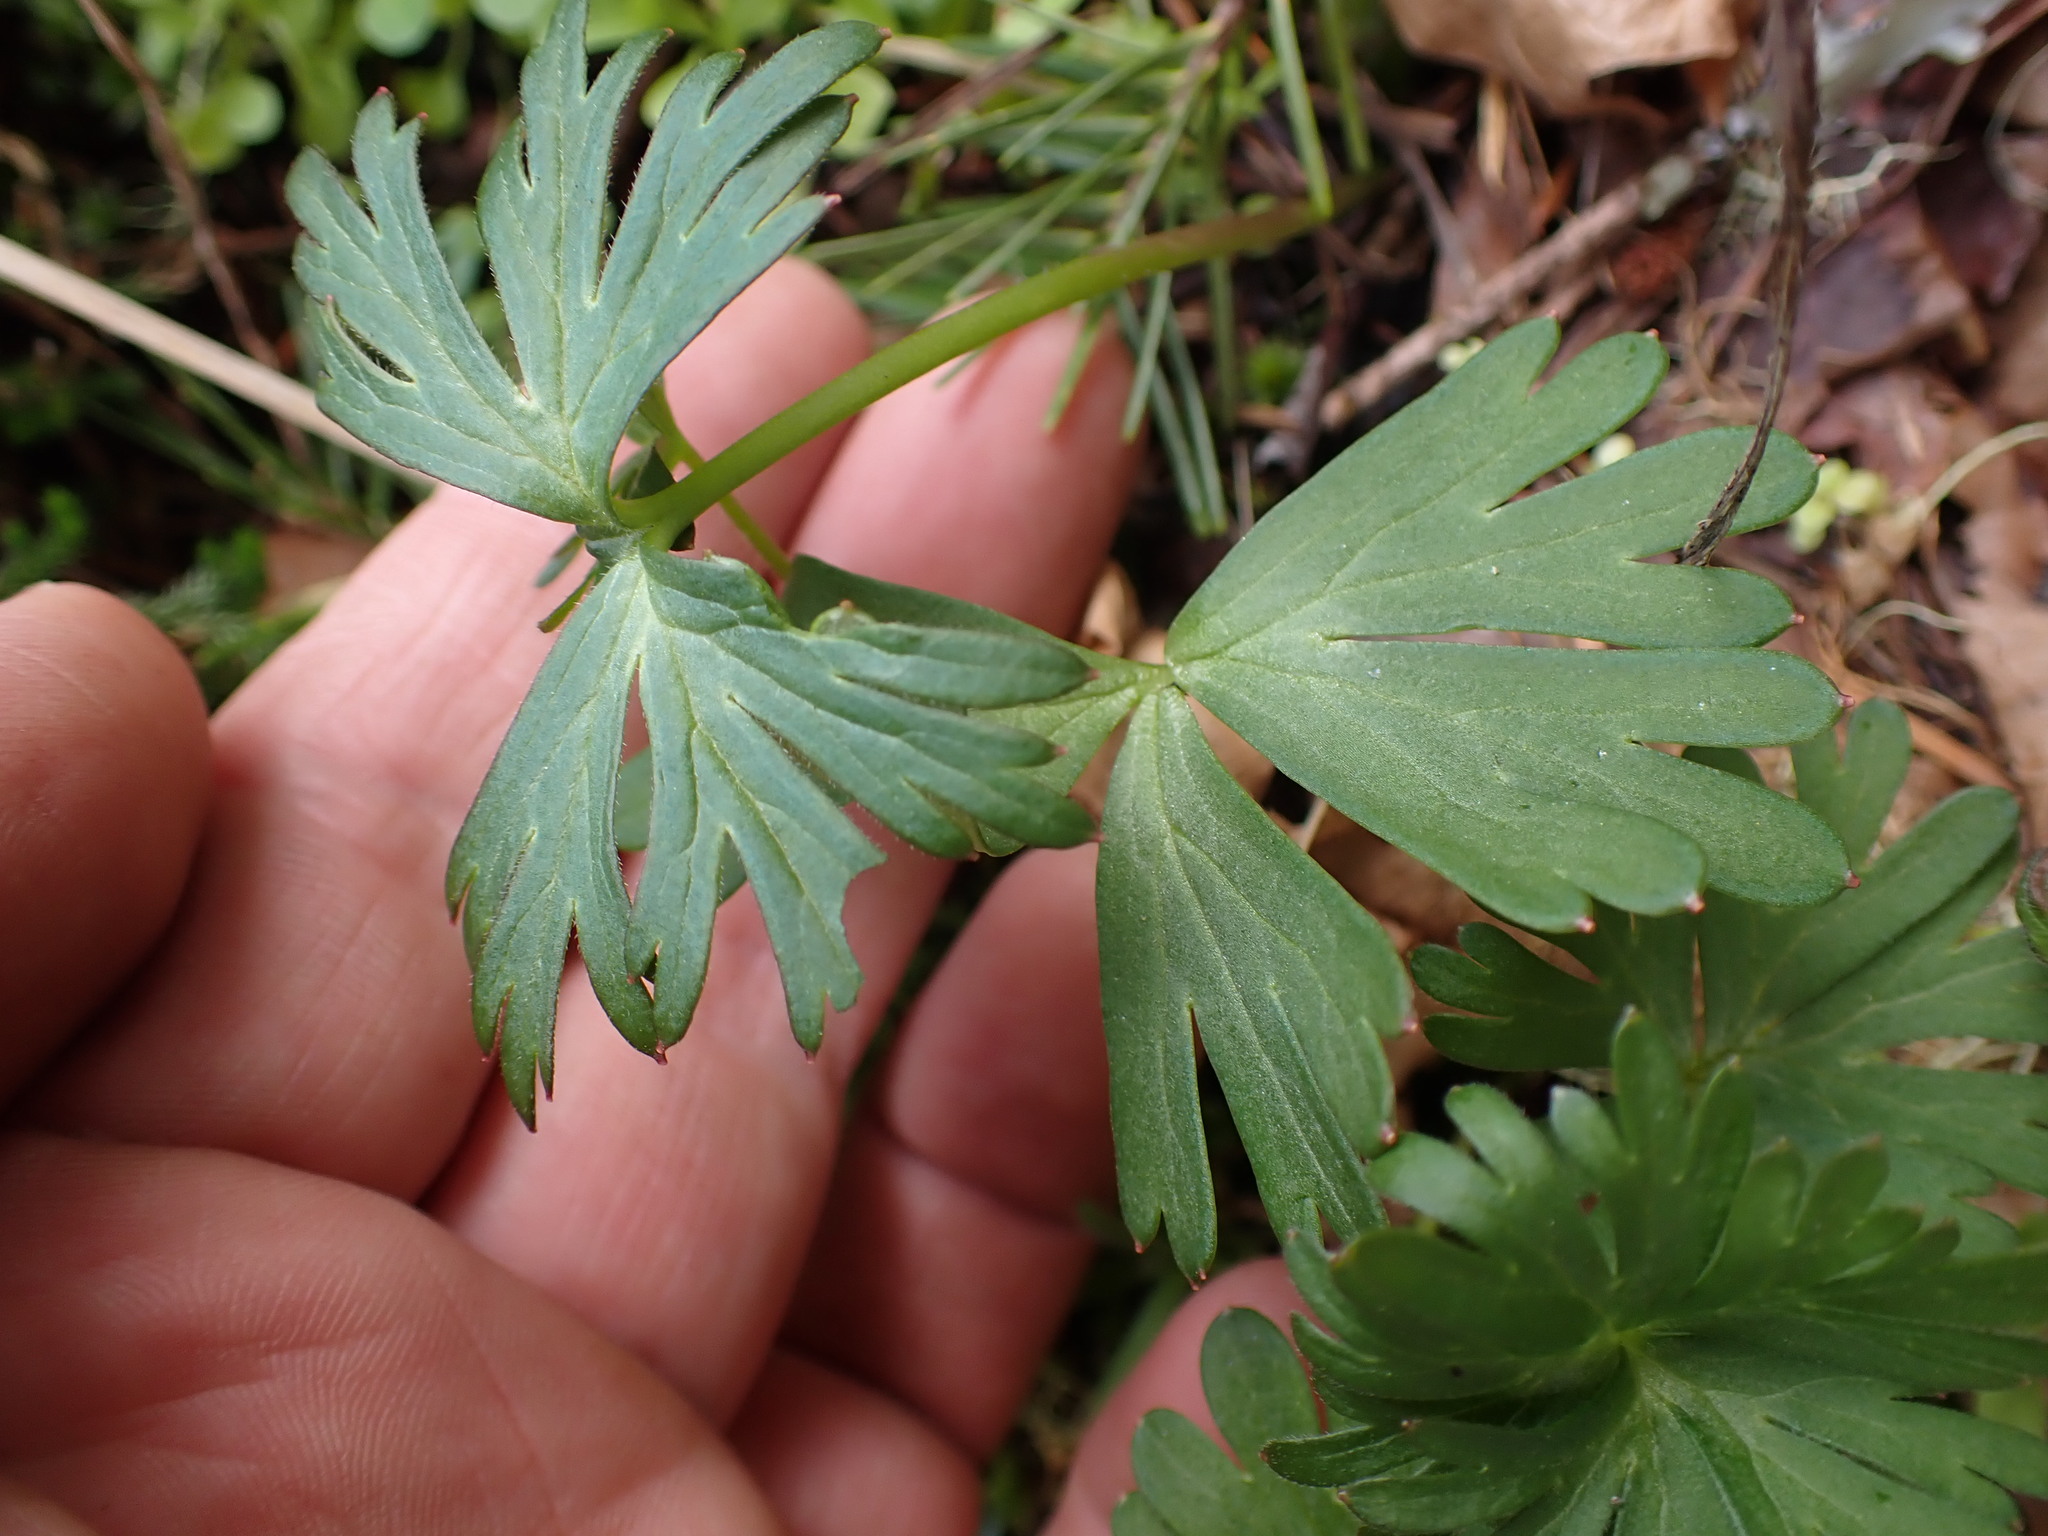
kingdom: Plantae
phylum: Tracheophyta
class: Magnoliopsida
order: Ranunculales
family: Ranunculaceae
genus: Delphinium
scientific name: Delphinium menziesii
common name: Menzies's larkspur
